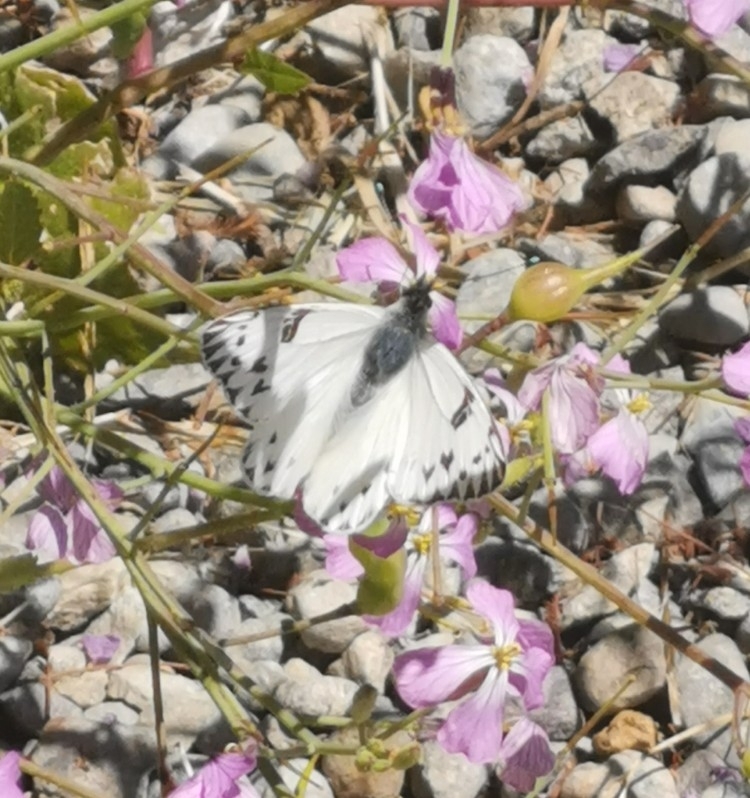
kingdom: Animalia
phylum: Arthropoda
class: Insecta
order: Lepidoptera
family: Pieridae
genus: Tatochila
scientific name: Tatochila autodice
